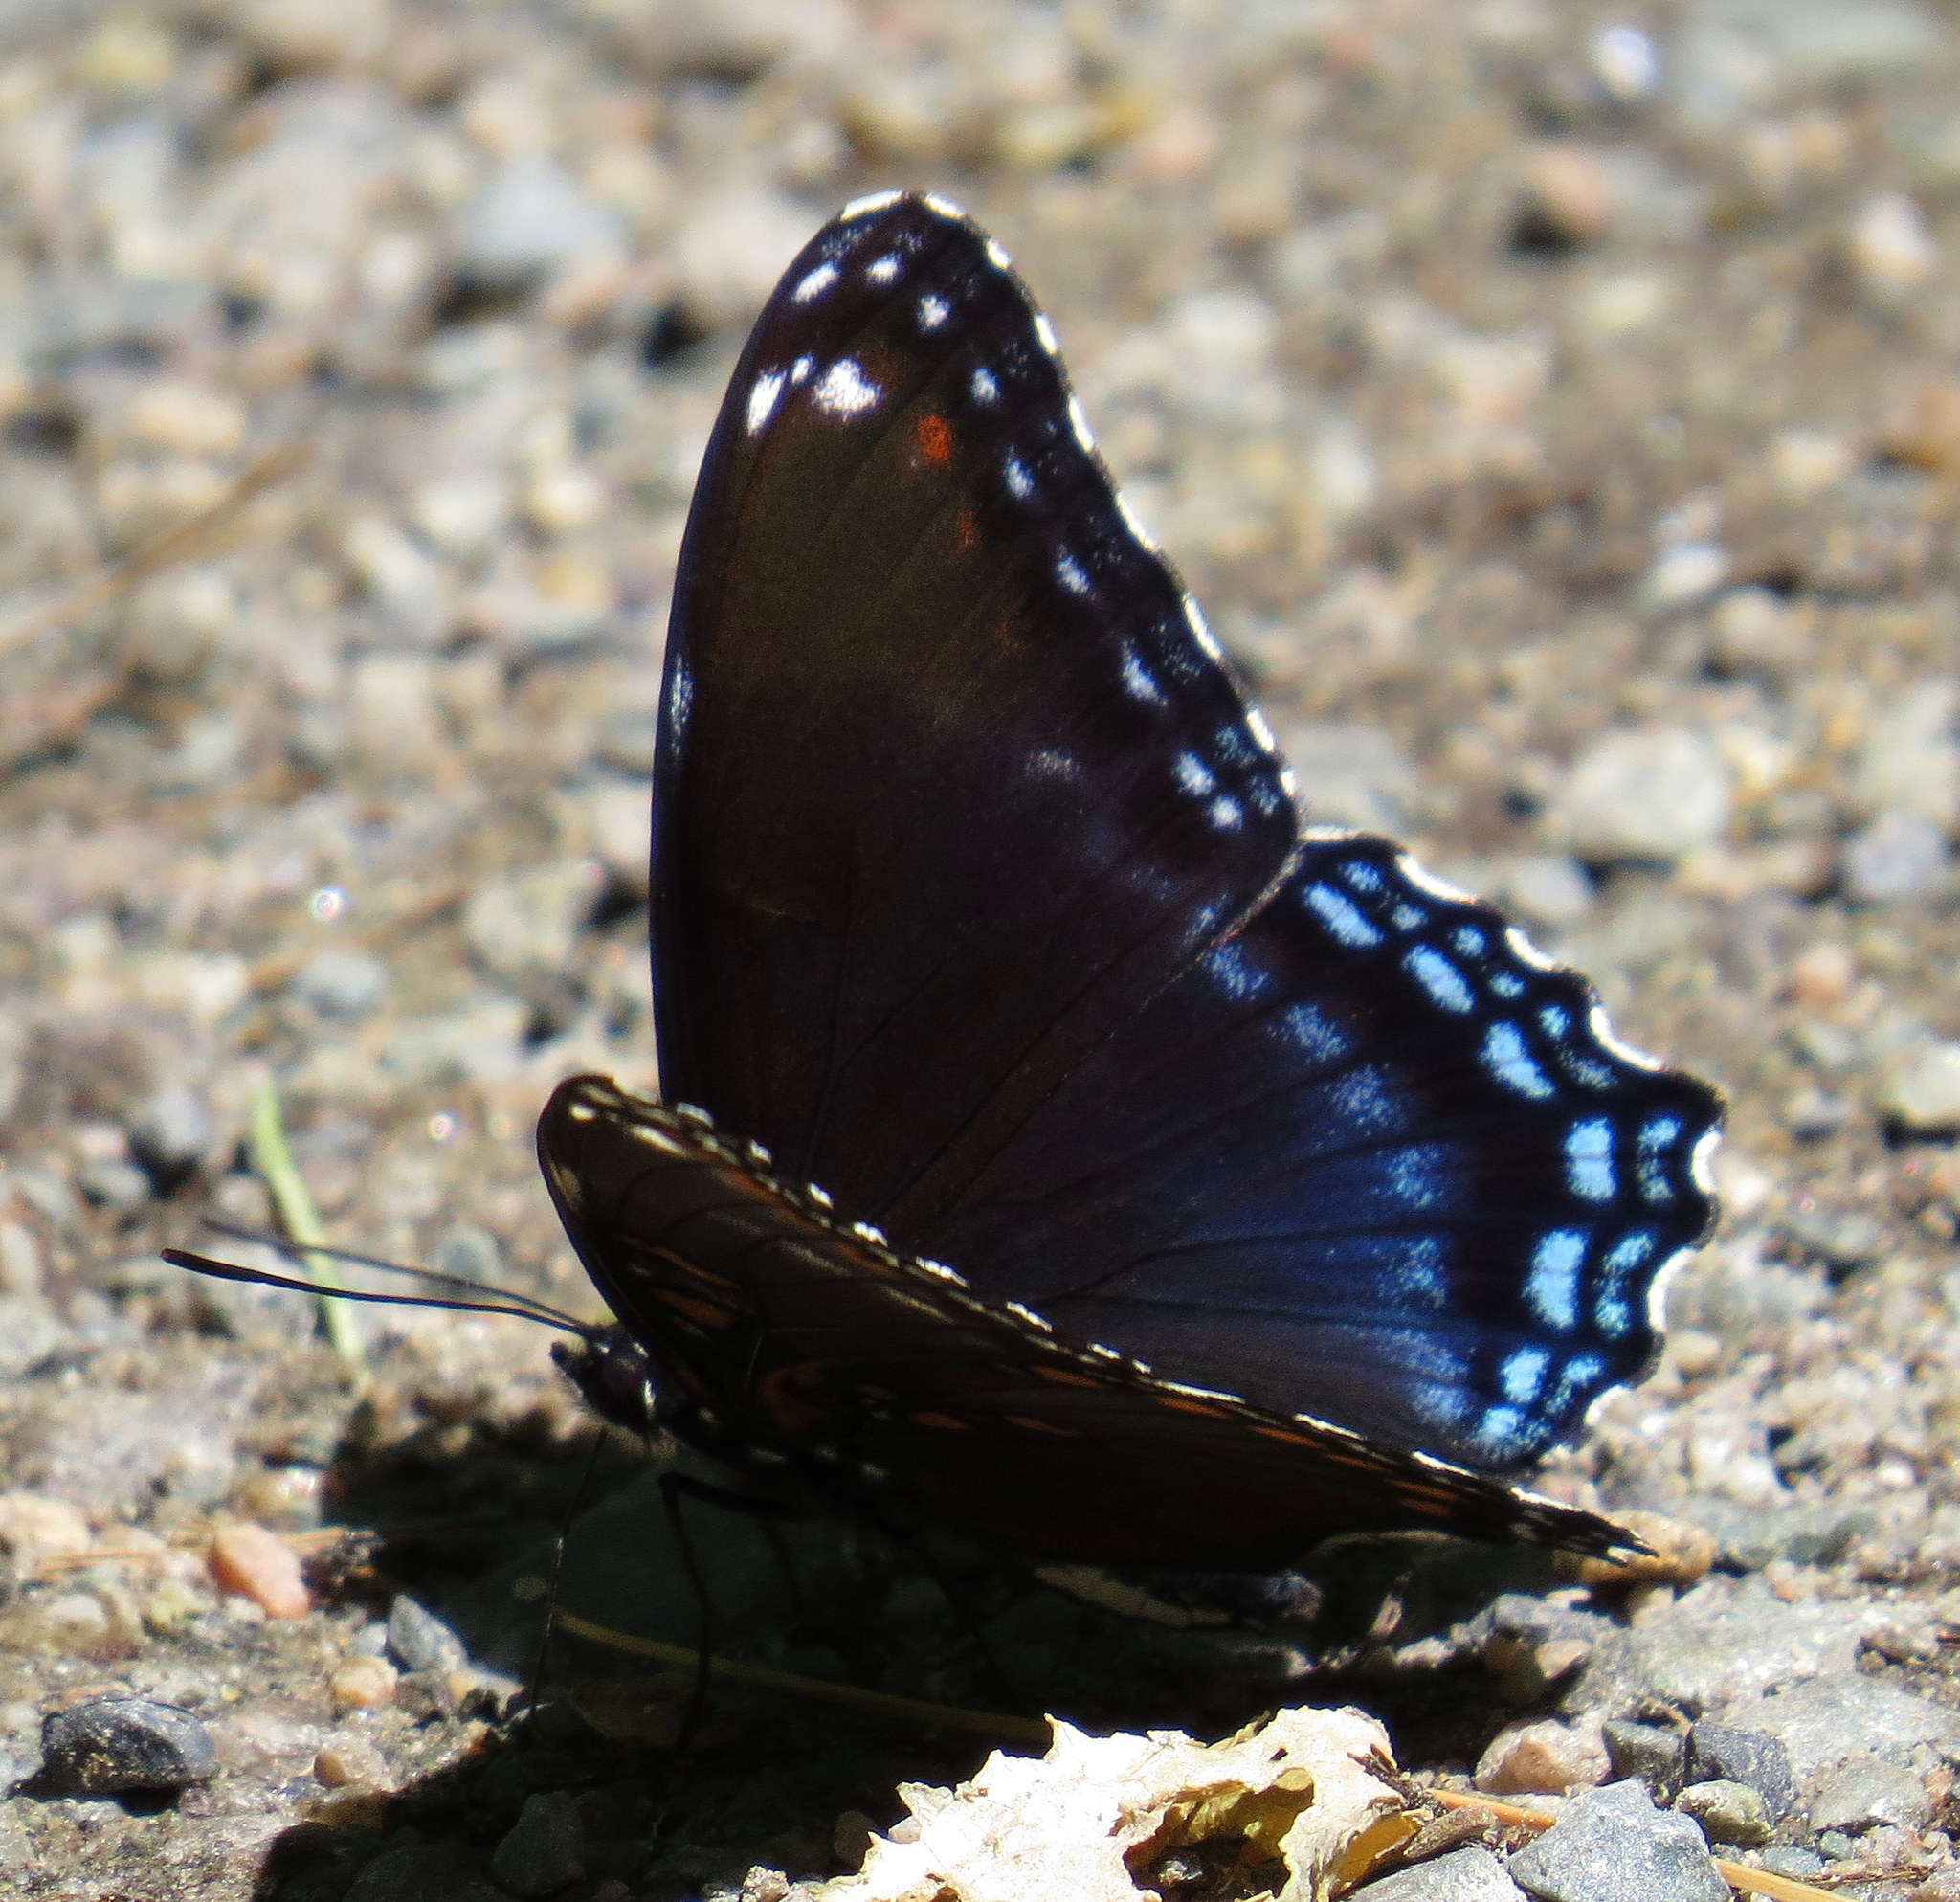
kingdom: Animalia
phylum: Arthropoda
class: Insecta
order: Lepidoptera
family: Nymphalidae
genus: Limenitis
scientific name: Limenitis astyanax
